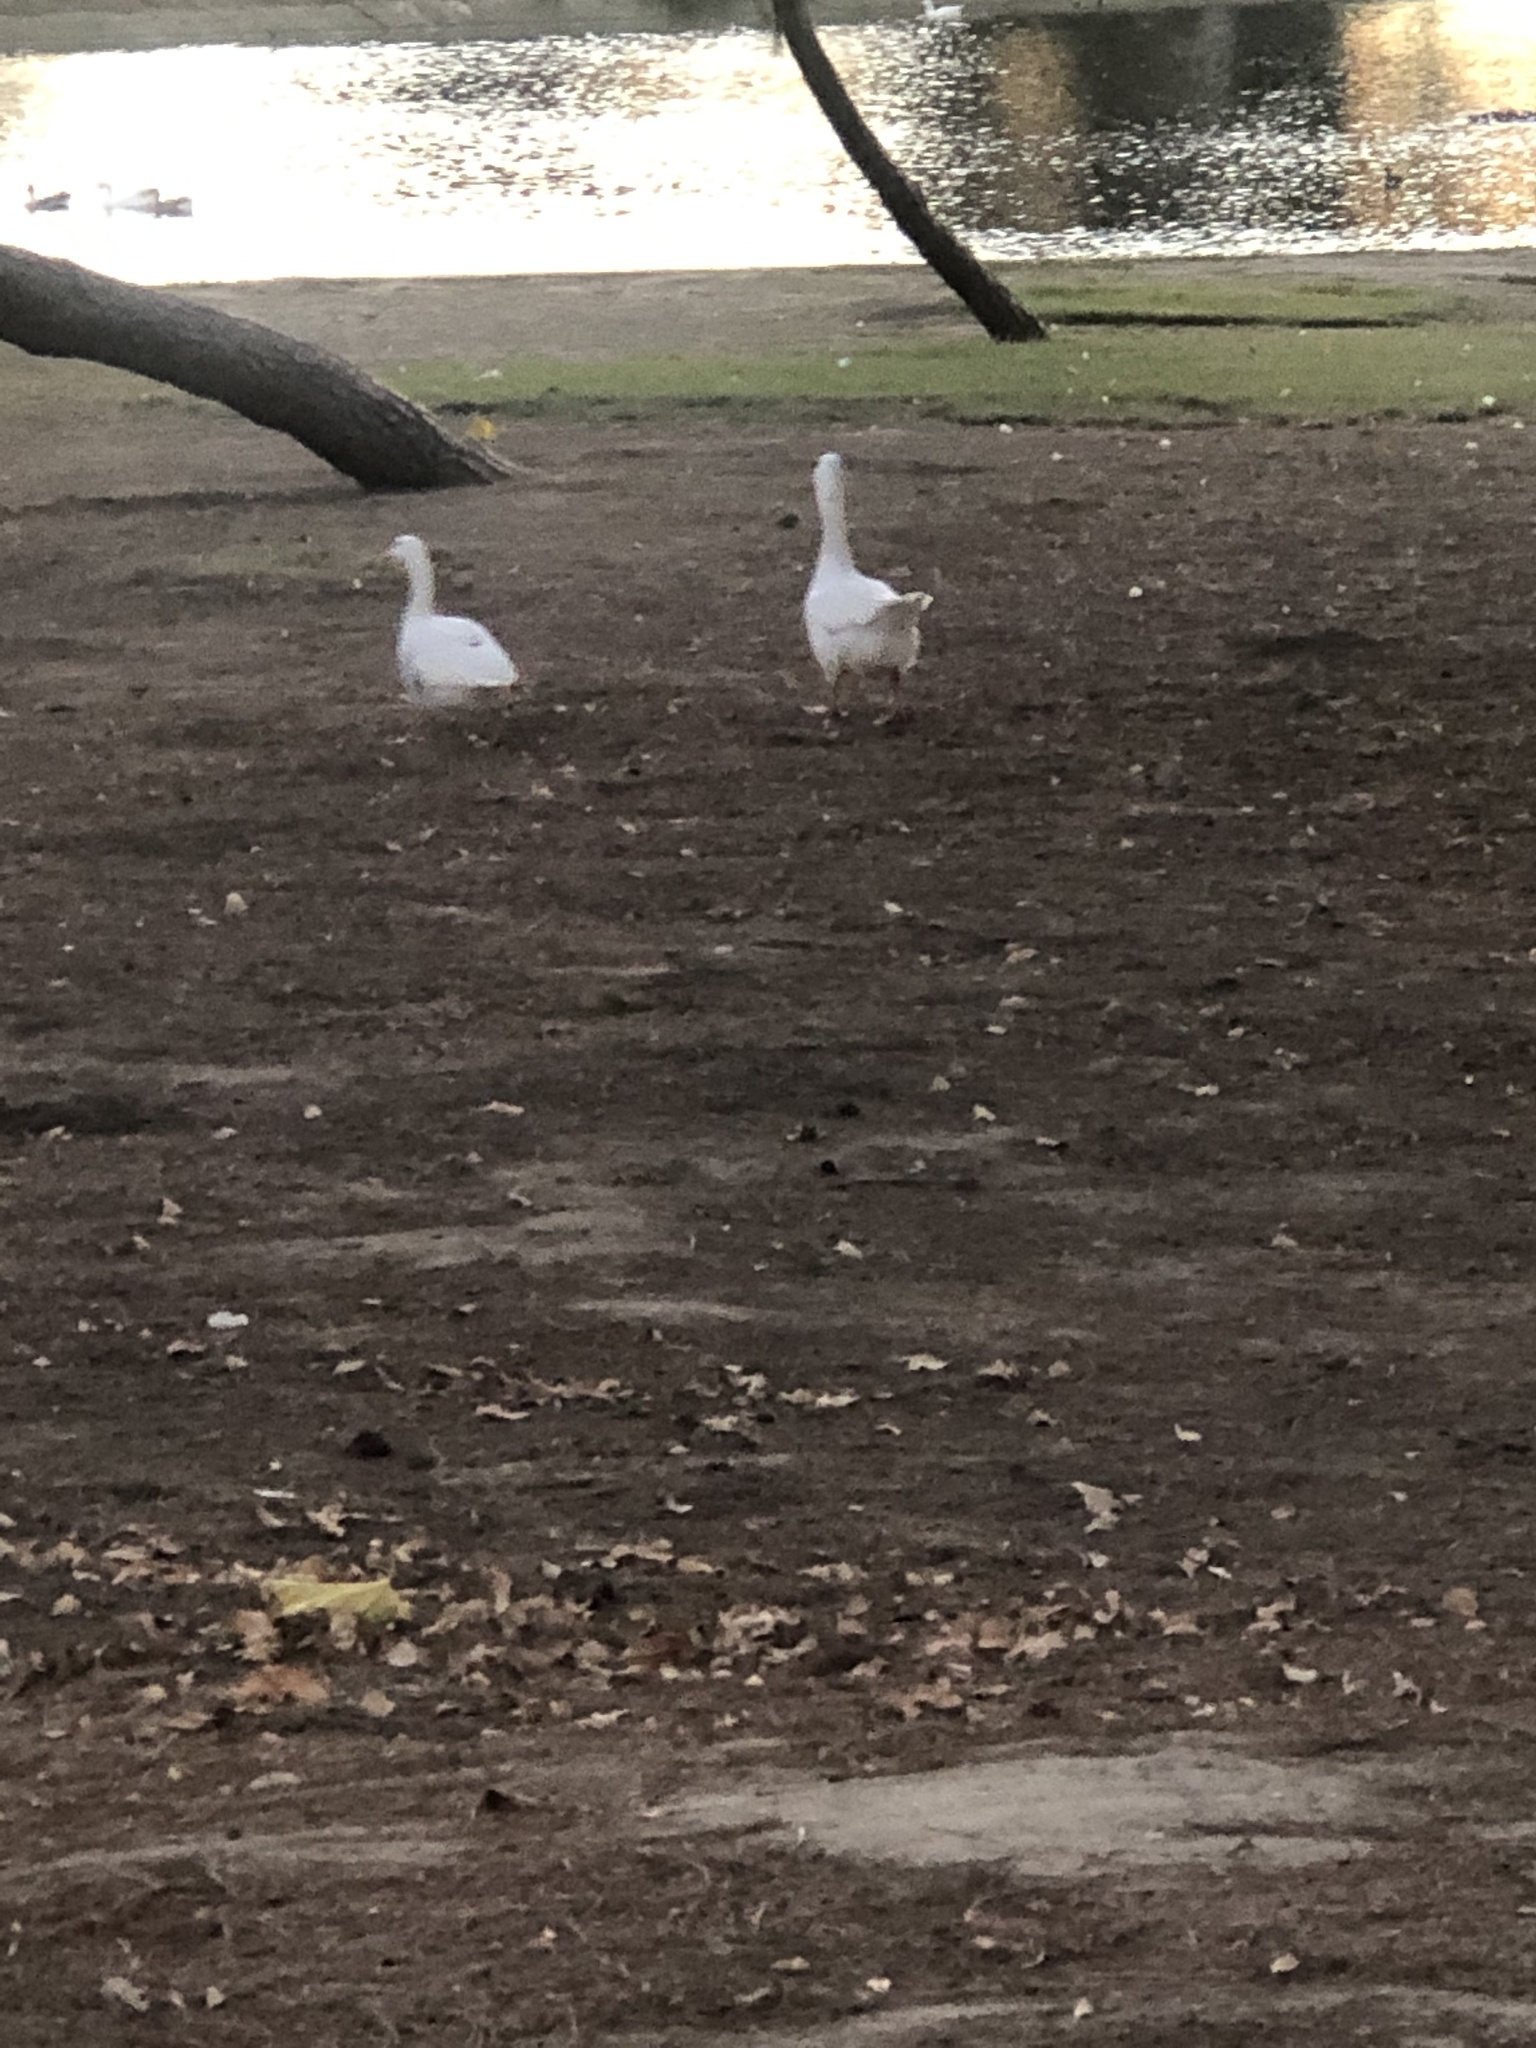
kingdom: Animalia
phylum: Chordata
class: Aves
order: Anseriformes
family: Anatidae
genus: Anser
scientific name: Anser anser
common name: Greylag goose
